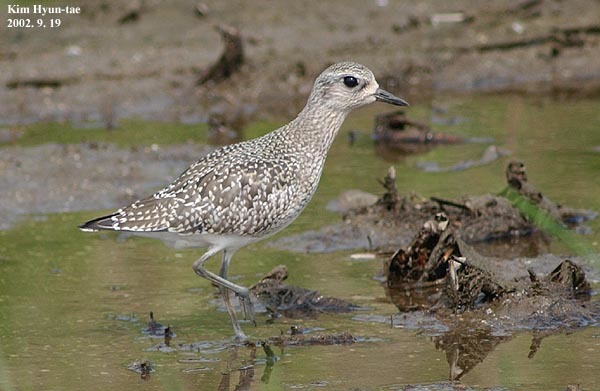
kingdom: Animalia
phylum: Chordata
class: Aves
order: Charadriiformes
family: Charadriidae
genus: Pluvialis
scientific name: Pluvialis squatarola
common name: Grey plover
